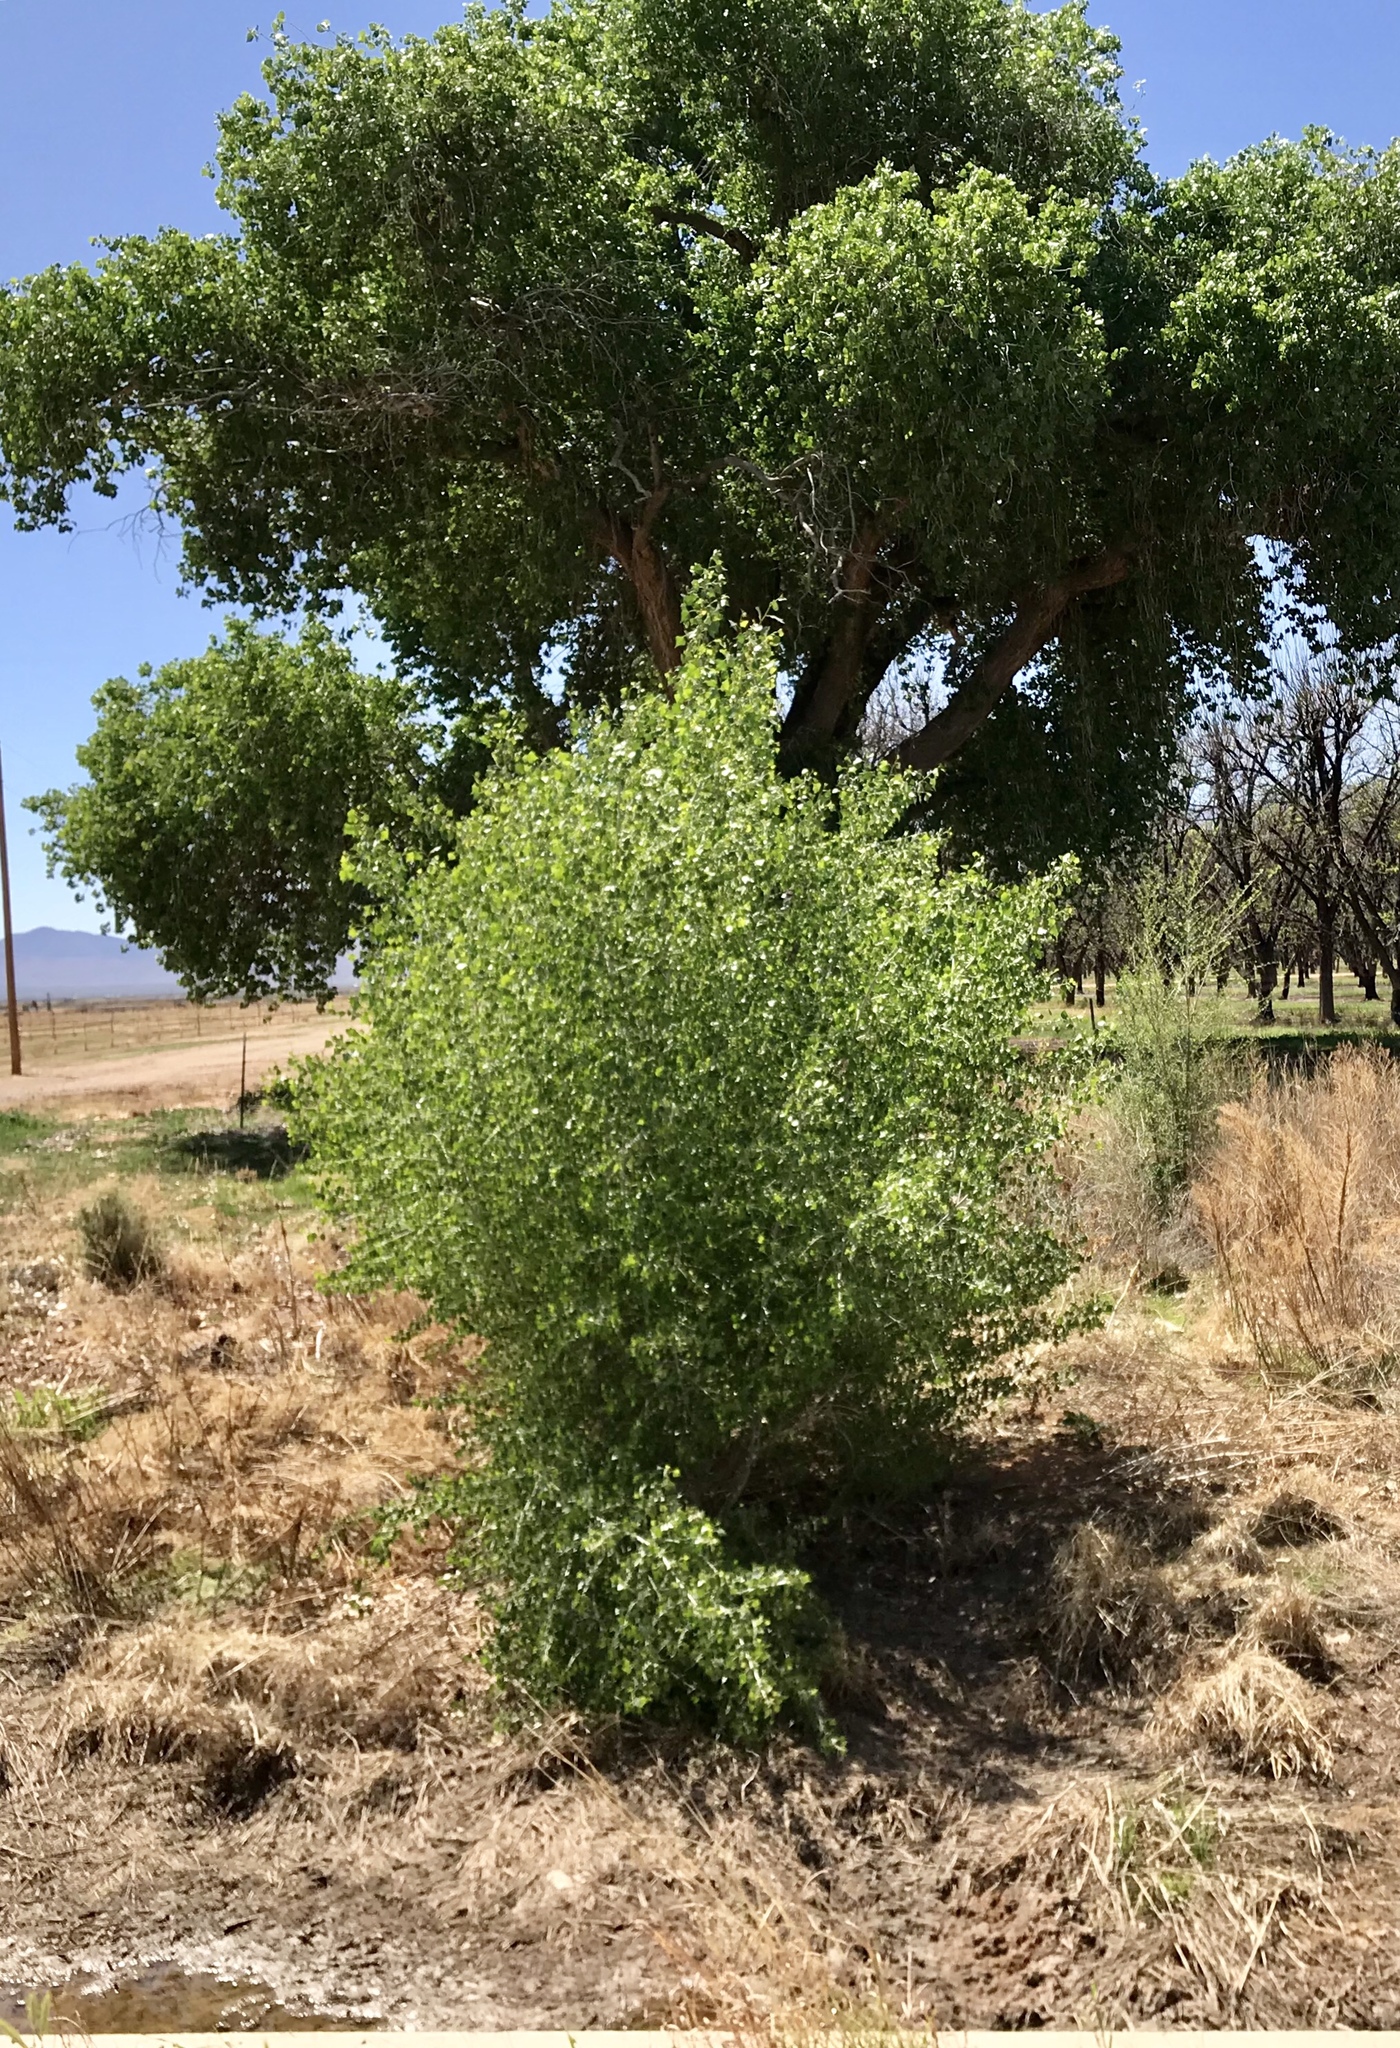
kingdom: Plantae
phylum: Tracheophyta
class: Magnoliopsida
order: Malpighiales
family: Salicaceae
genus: Populus
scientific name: Populus fremontii
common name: Fremont's cottonwood
